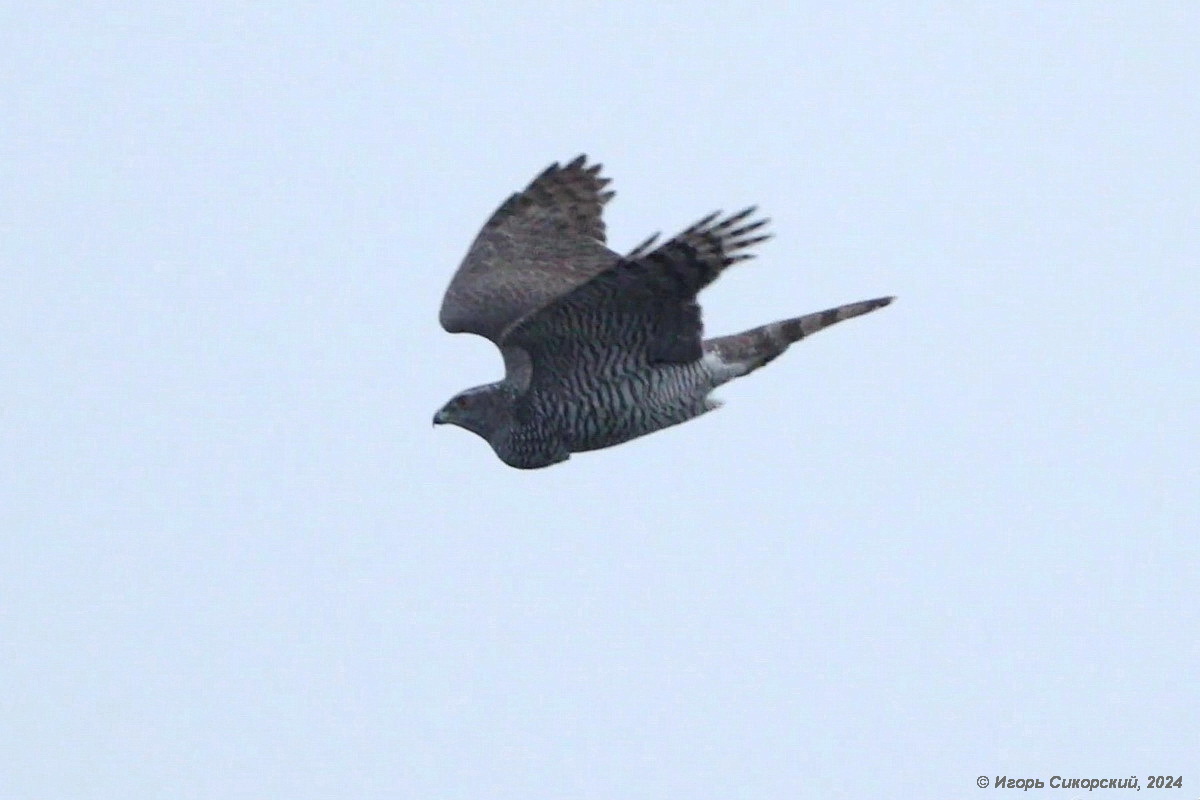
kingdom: Animalia
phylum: Chordata
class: Aves
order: Accipitriformes
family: Accipitridae
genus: Accipiter
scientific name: Accipiter gentilis
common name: Northern goshawk
